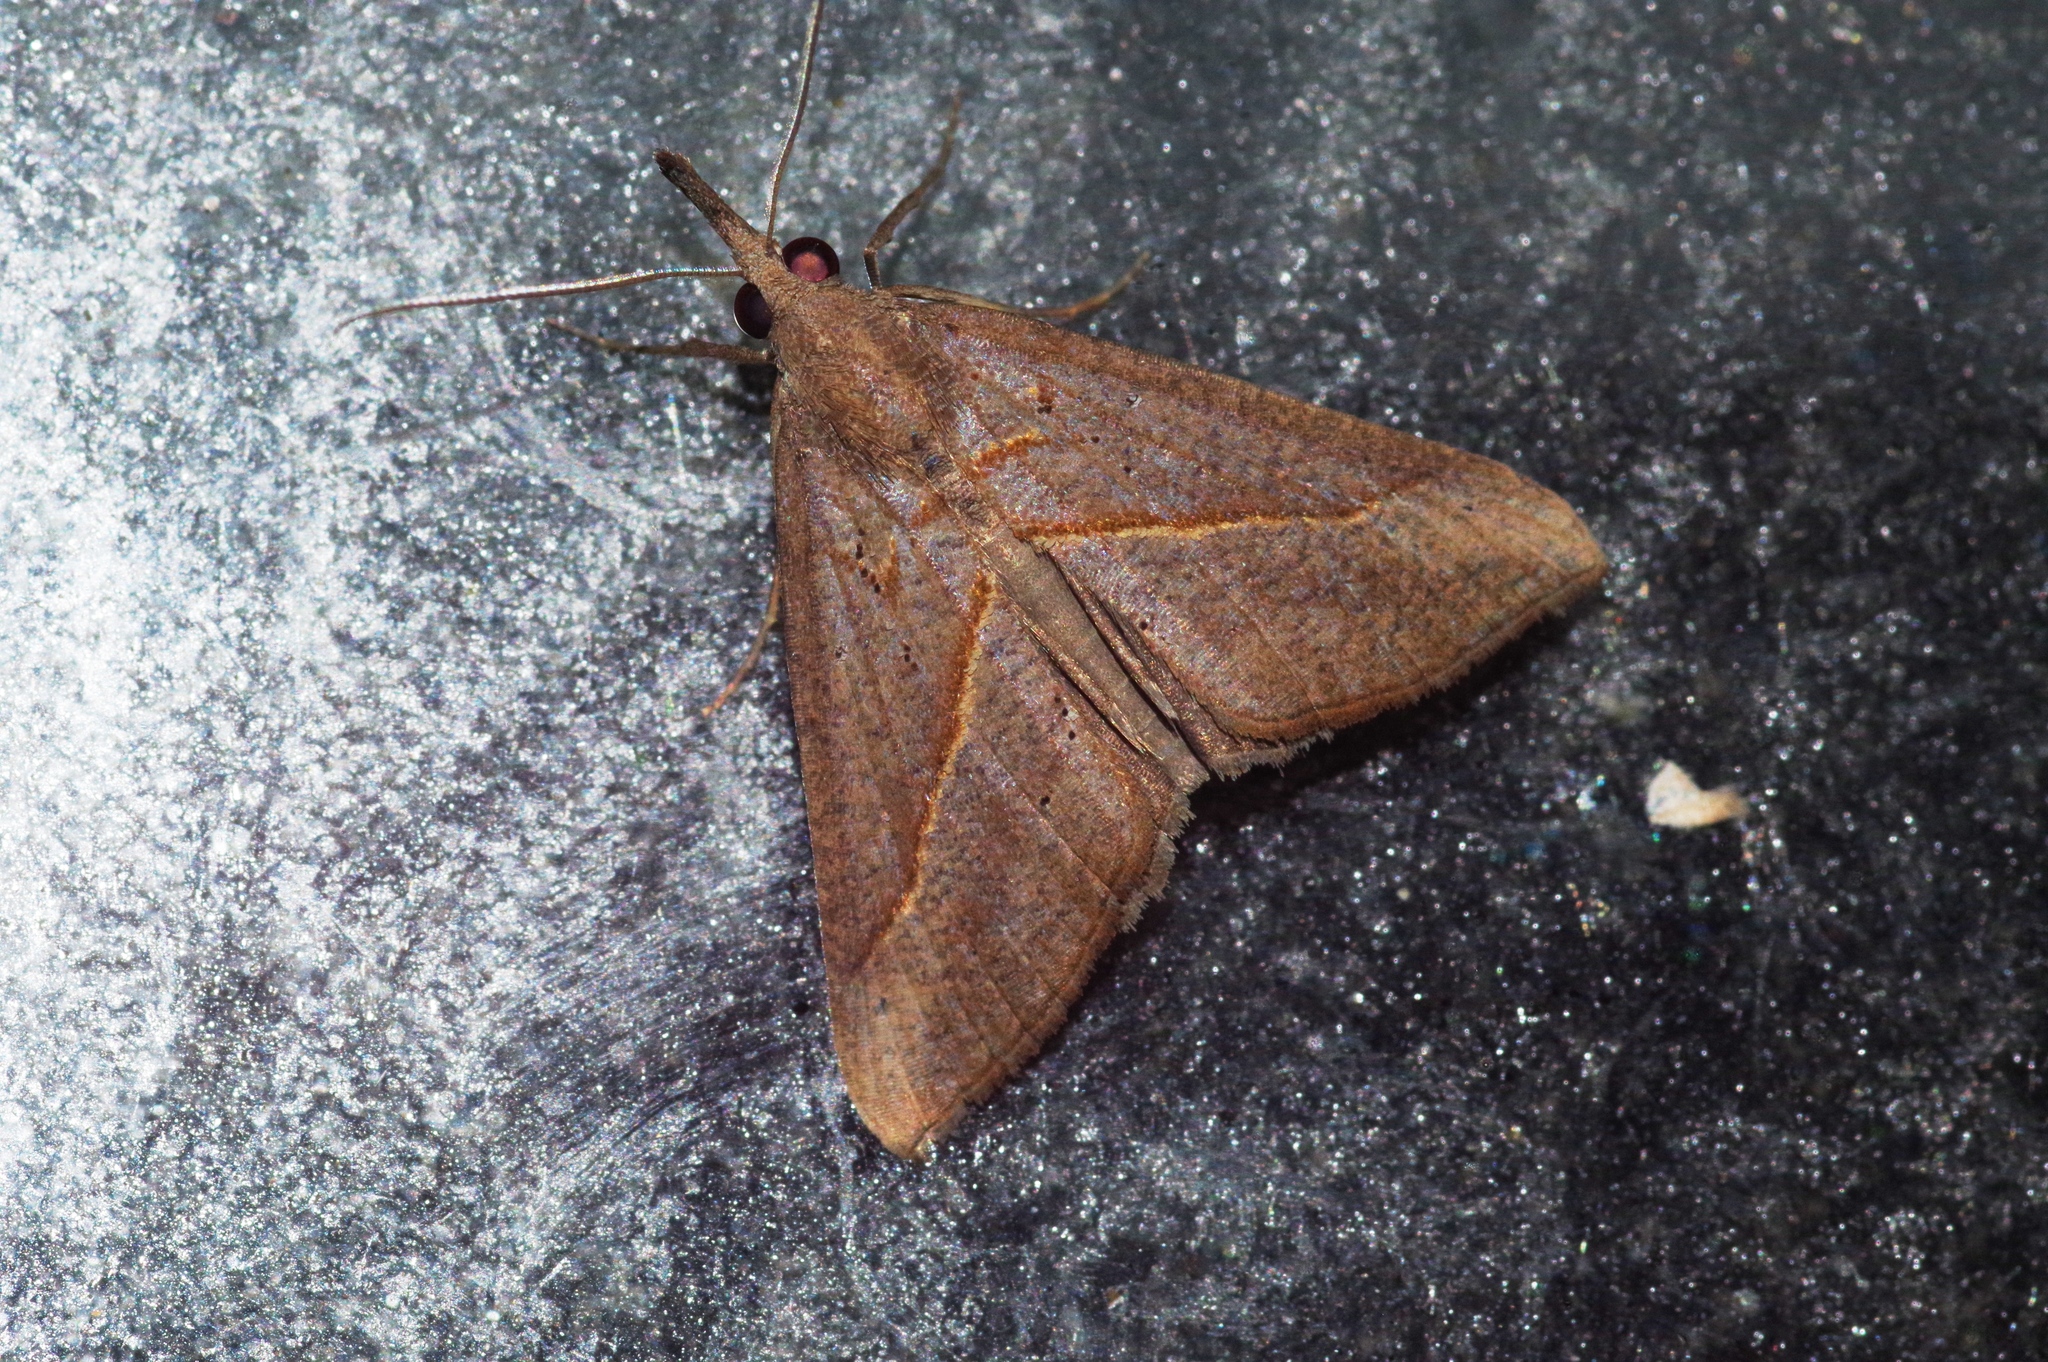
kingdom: Animalia
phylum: Arthropoda
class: Insecta
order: Lepidoptera
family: Erebidae
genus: Hypena
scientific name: Hypena lividalis
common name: Chevron snout
